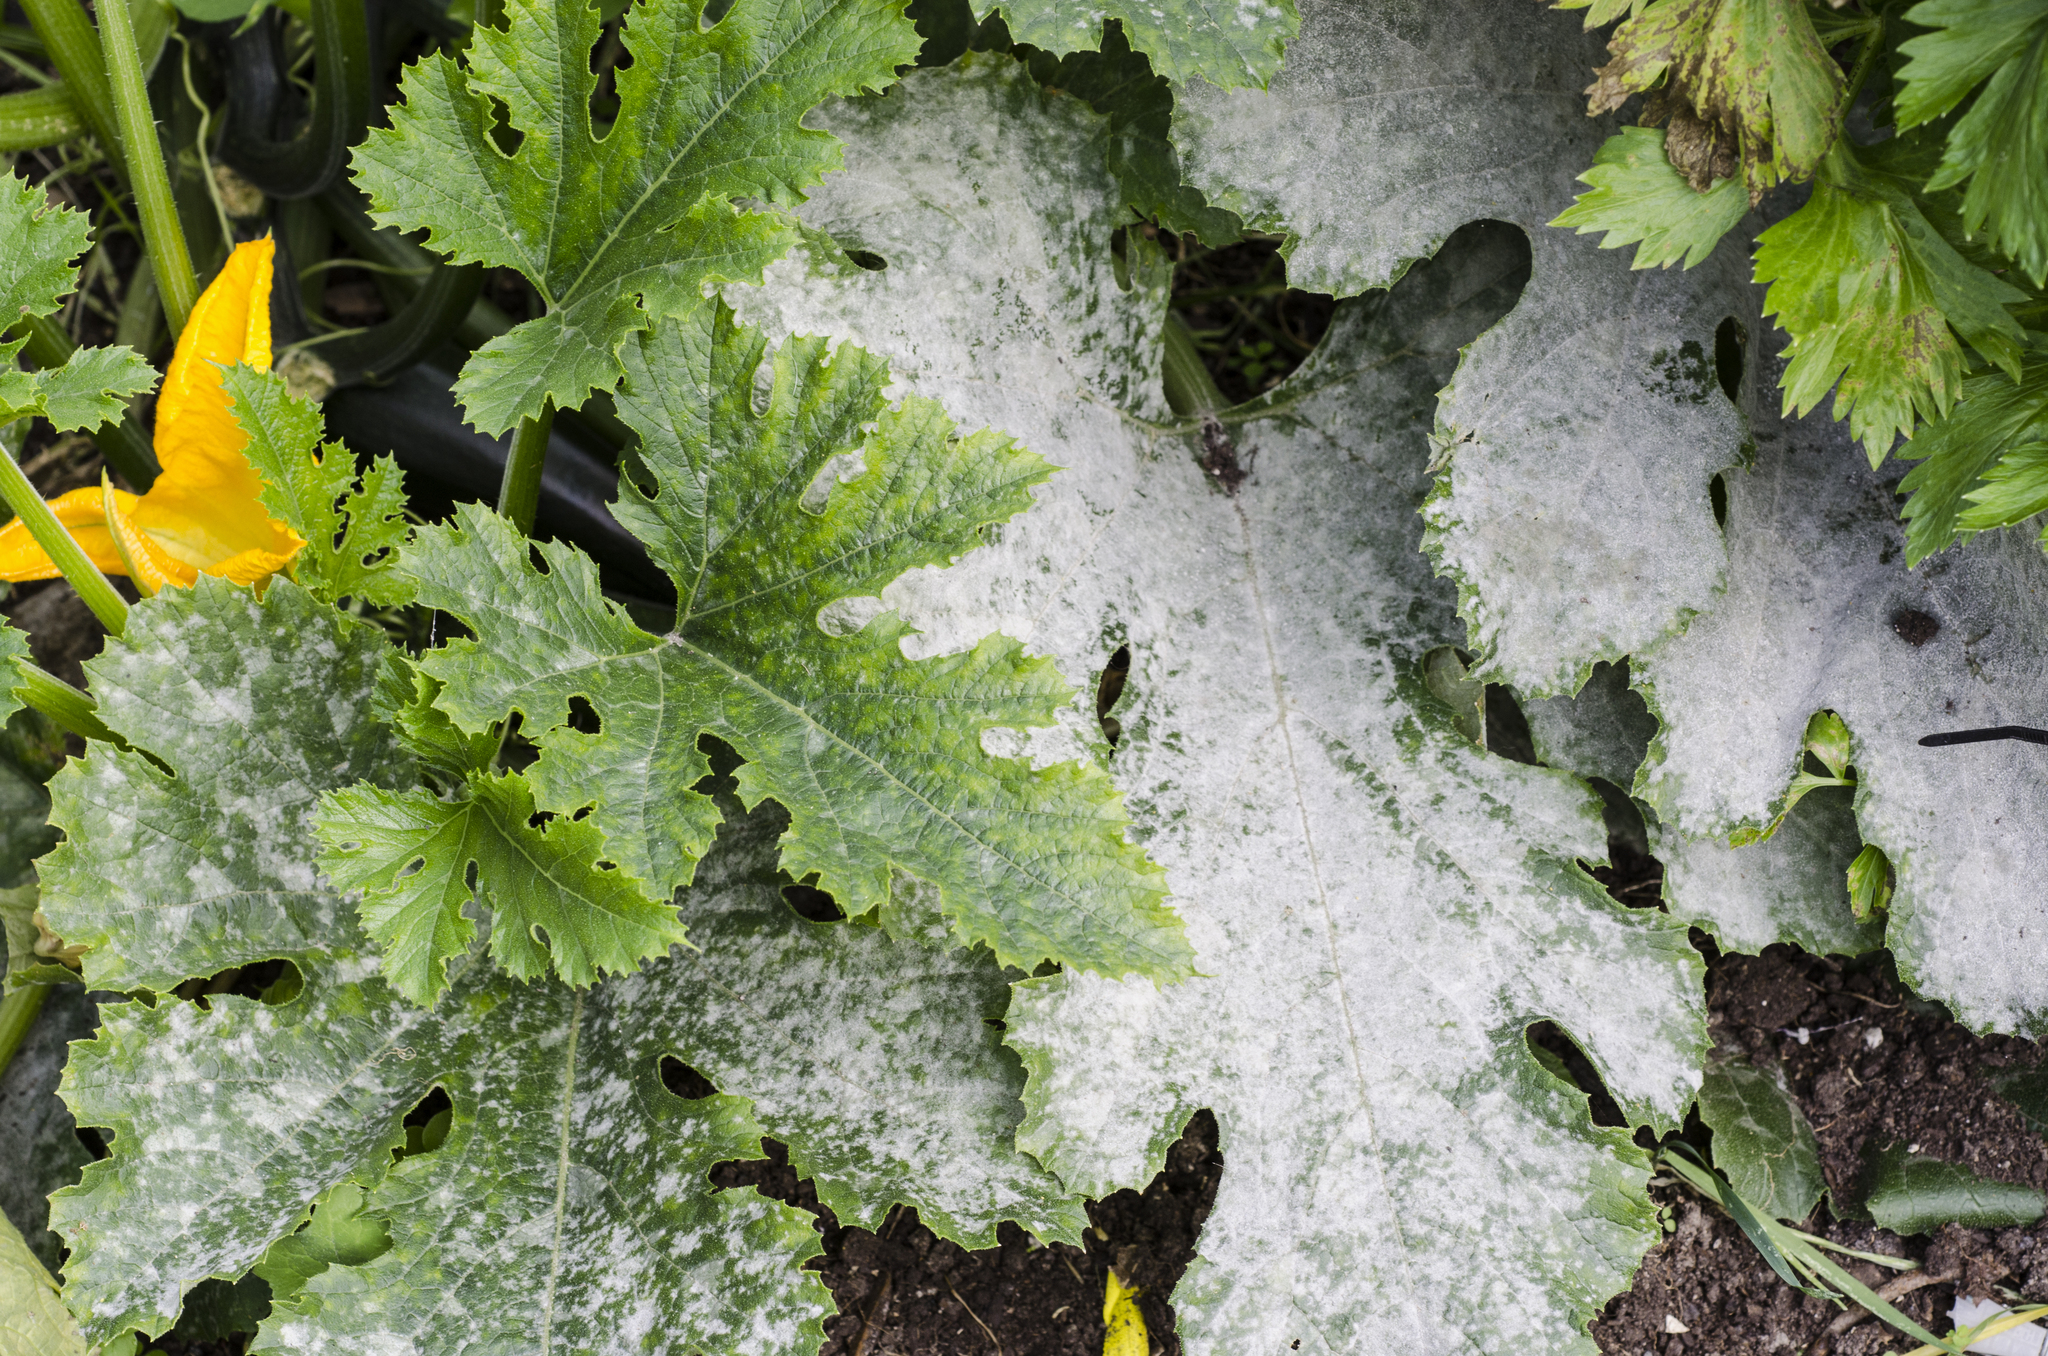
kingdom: Fungi
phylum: Ascomycota
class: Leotiomycetes
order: Helotiales
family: Erysiphaceae
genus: Golovinomyces
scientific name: Golovinomyces tabaci
